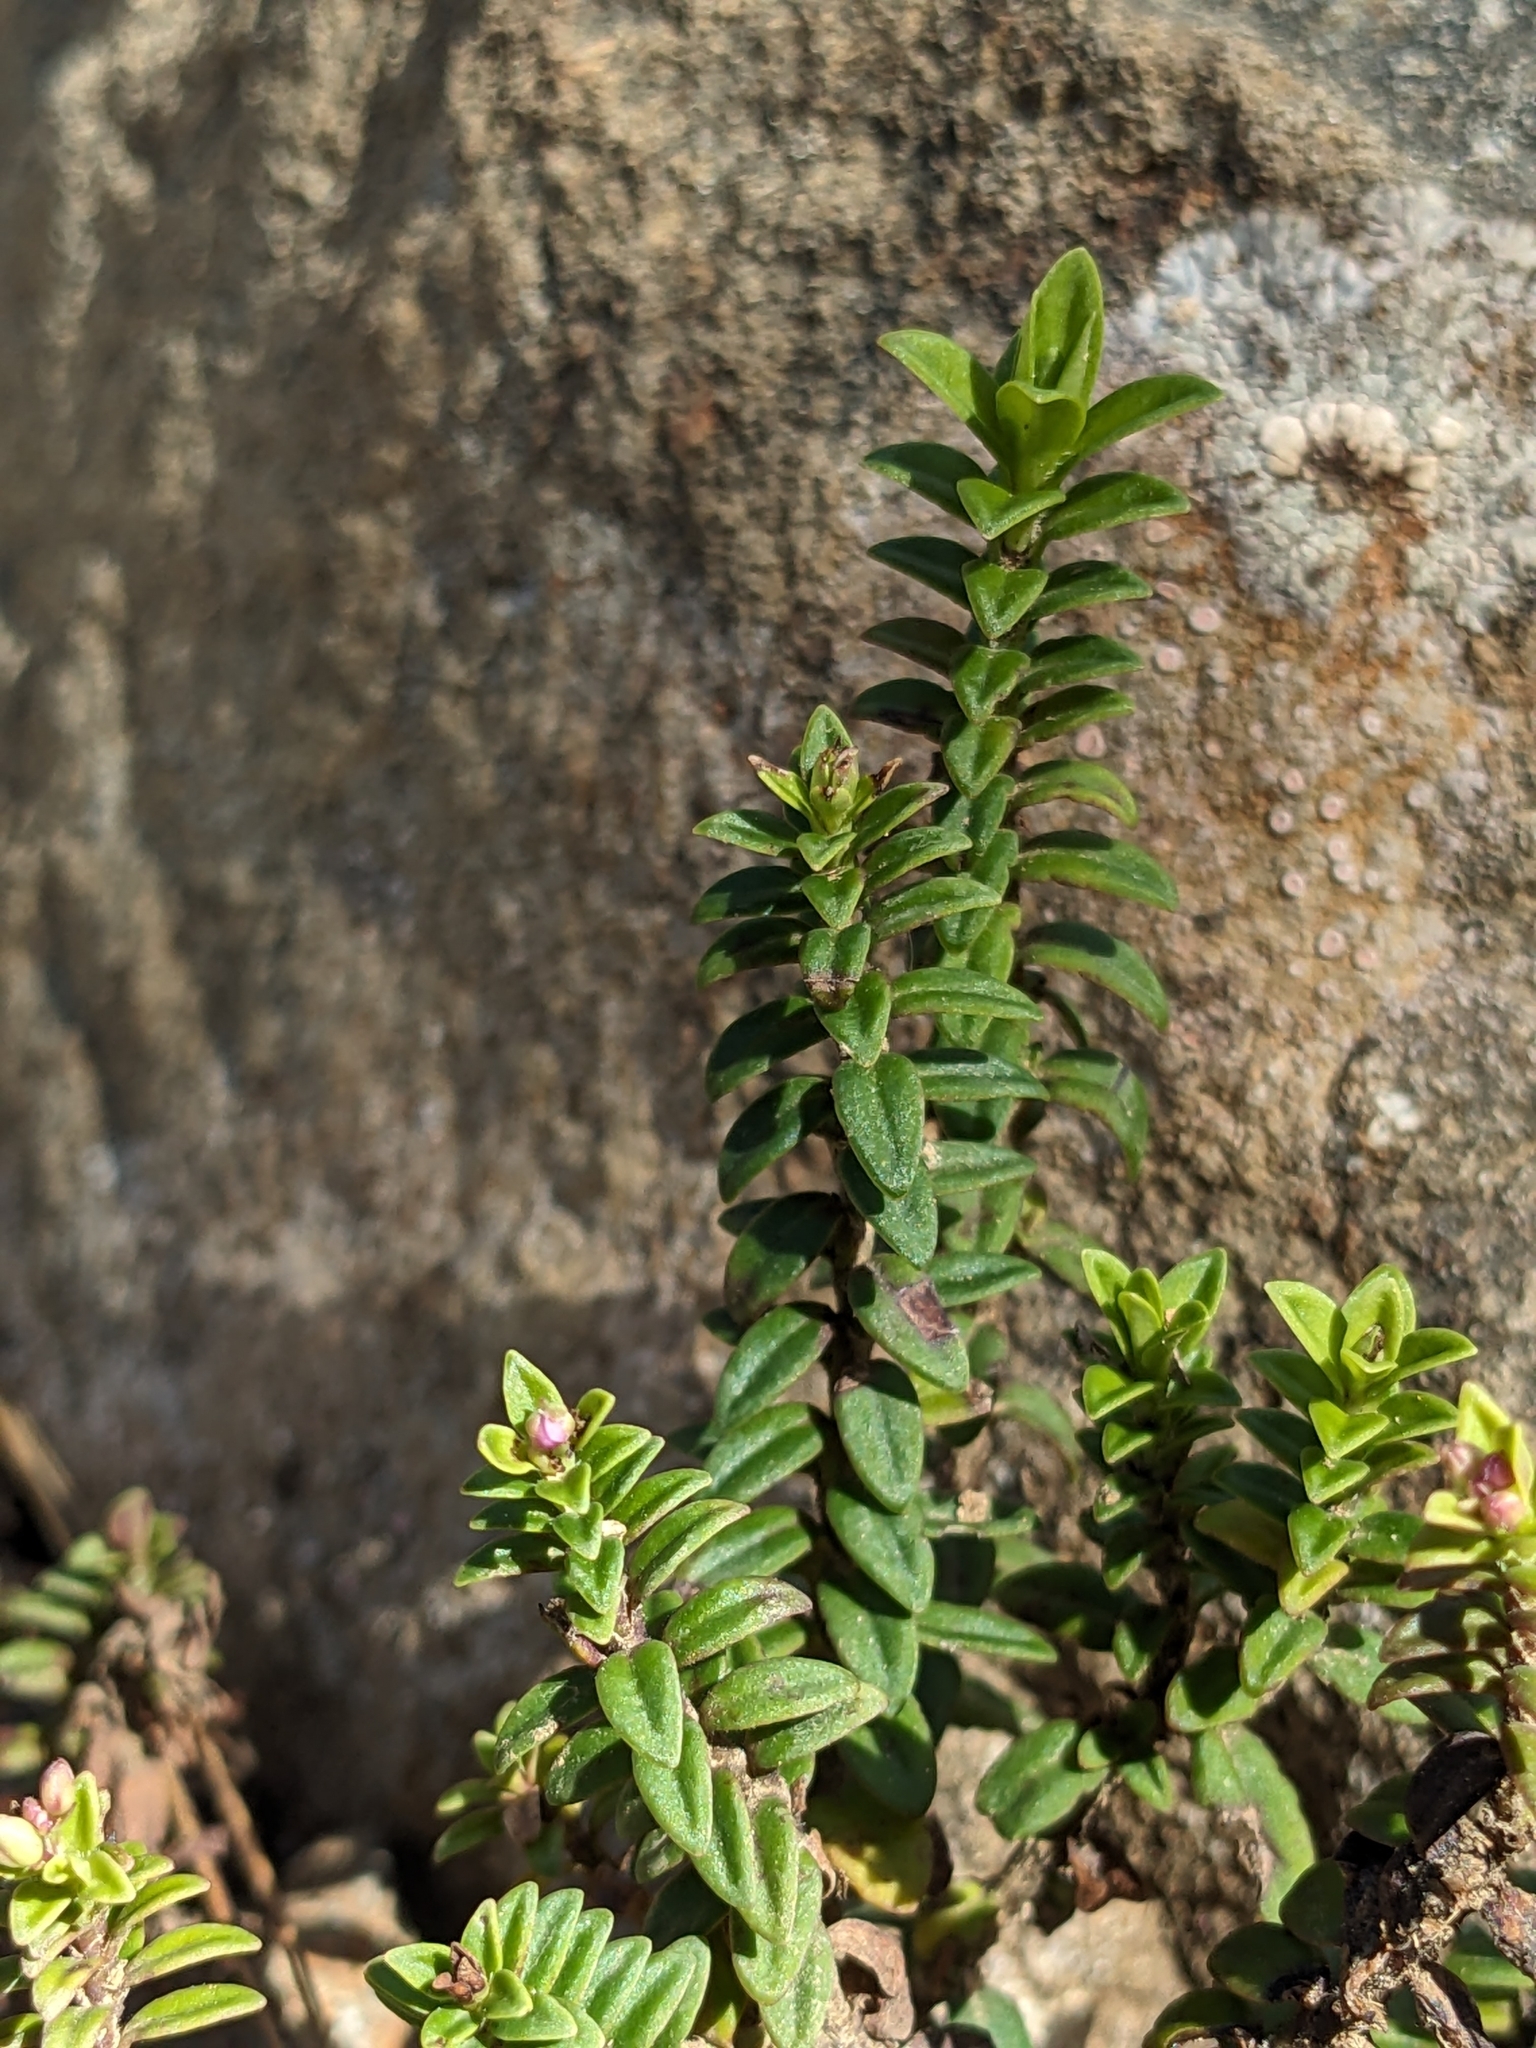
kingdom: Plantae
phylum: Tracheophyta
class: Magnoliopsida
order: Lamiales
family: Plantaginaceae
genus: Veronica
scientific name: Veronica formosa
